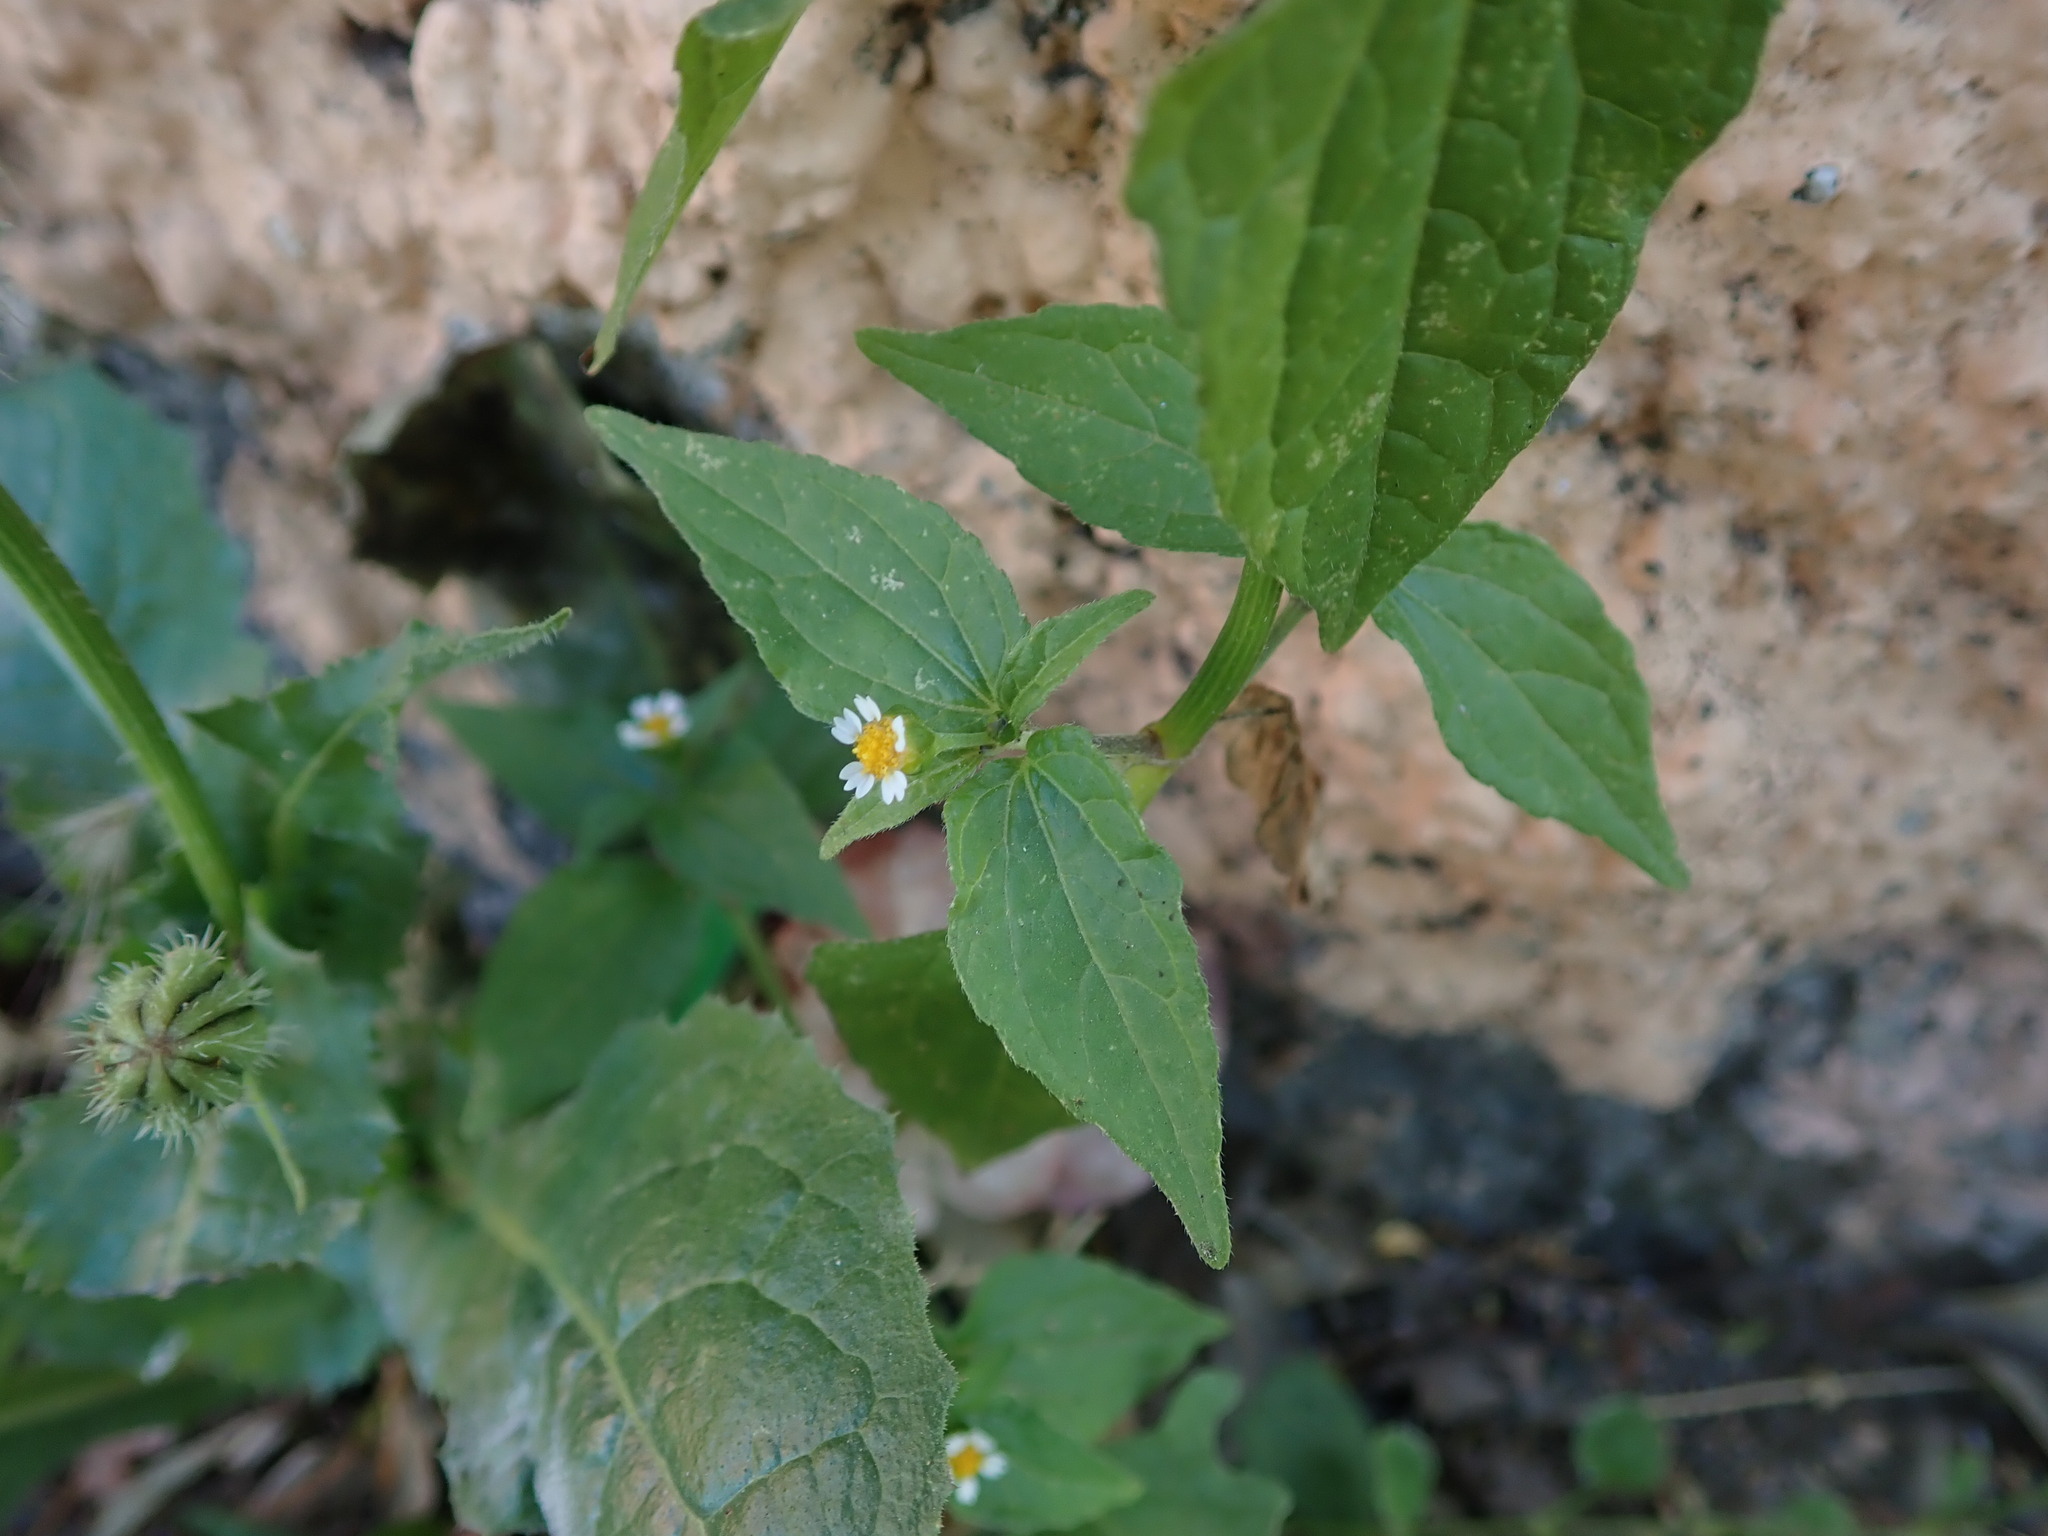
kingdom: Plantae
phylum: Tracheophyta
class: Magnoliopsida
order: Asterales
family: Asteraceae
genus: Galinsoga
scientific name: Galinsoga parviflora
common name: Gallant soldier
